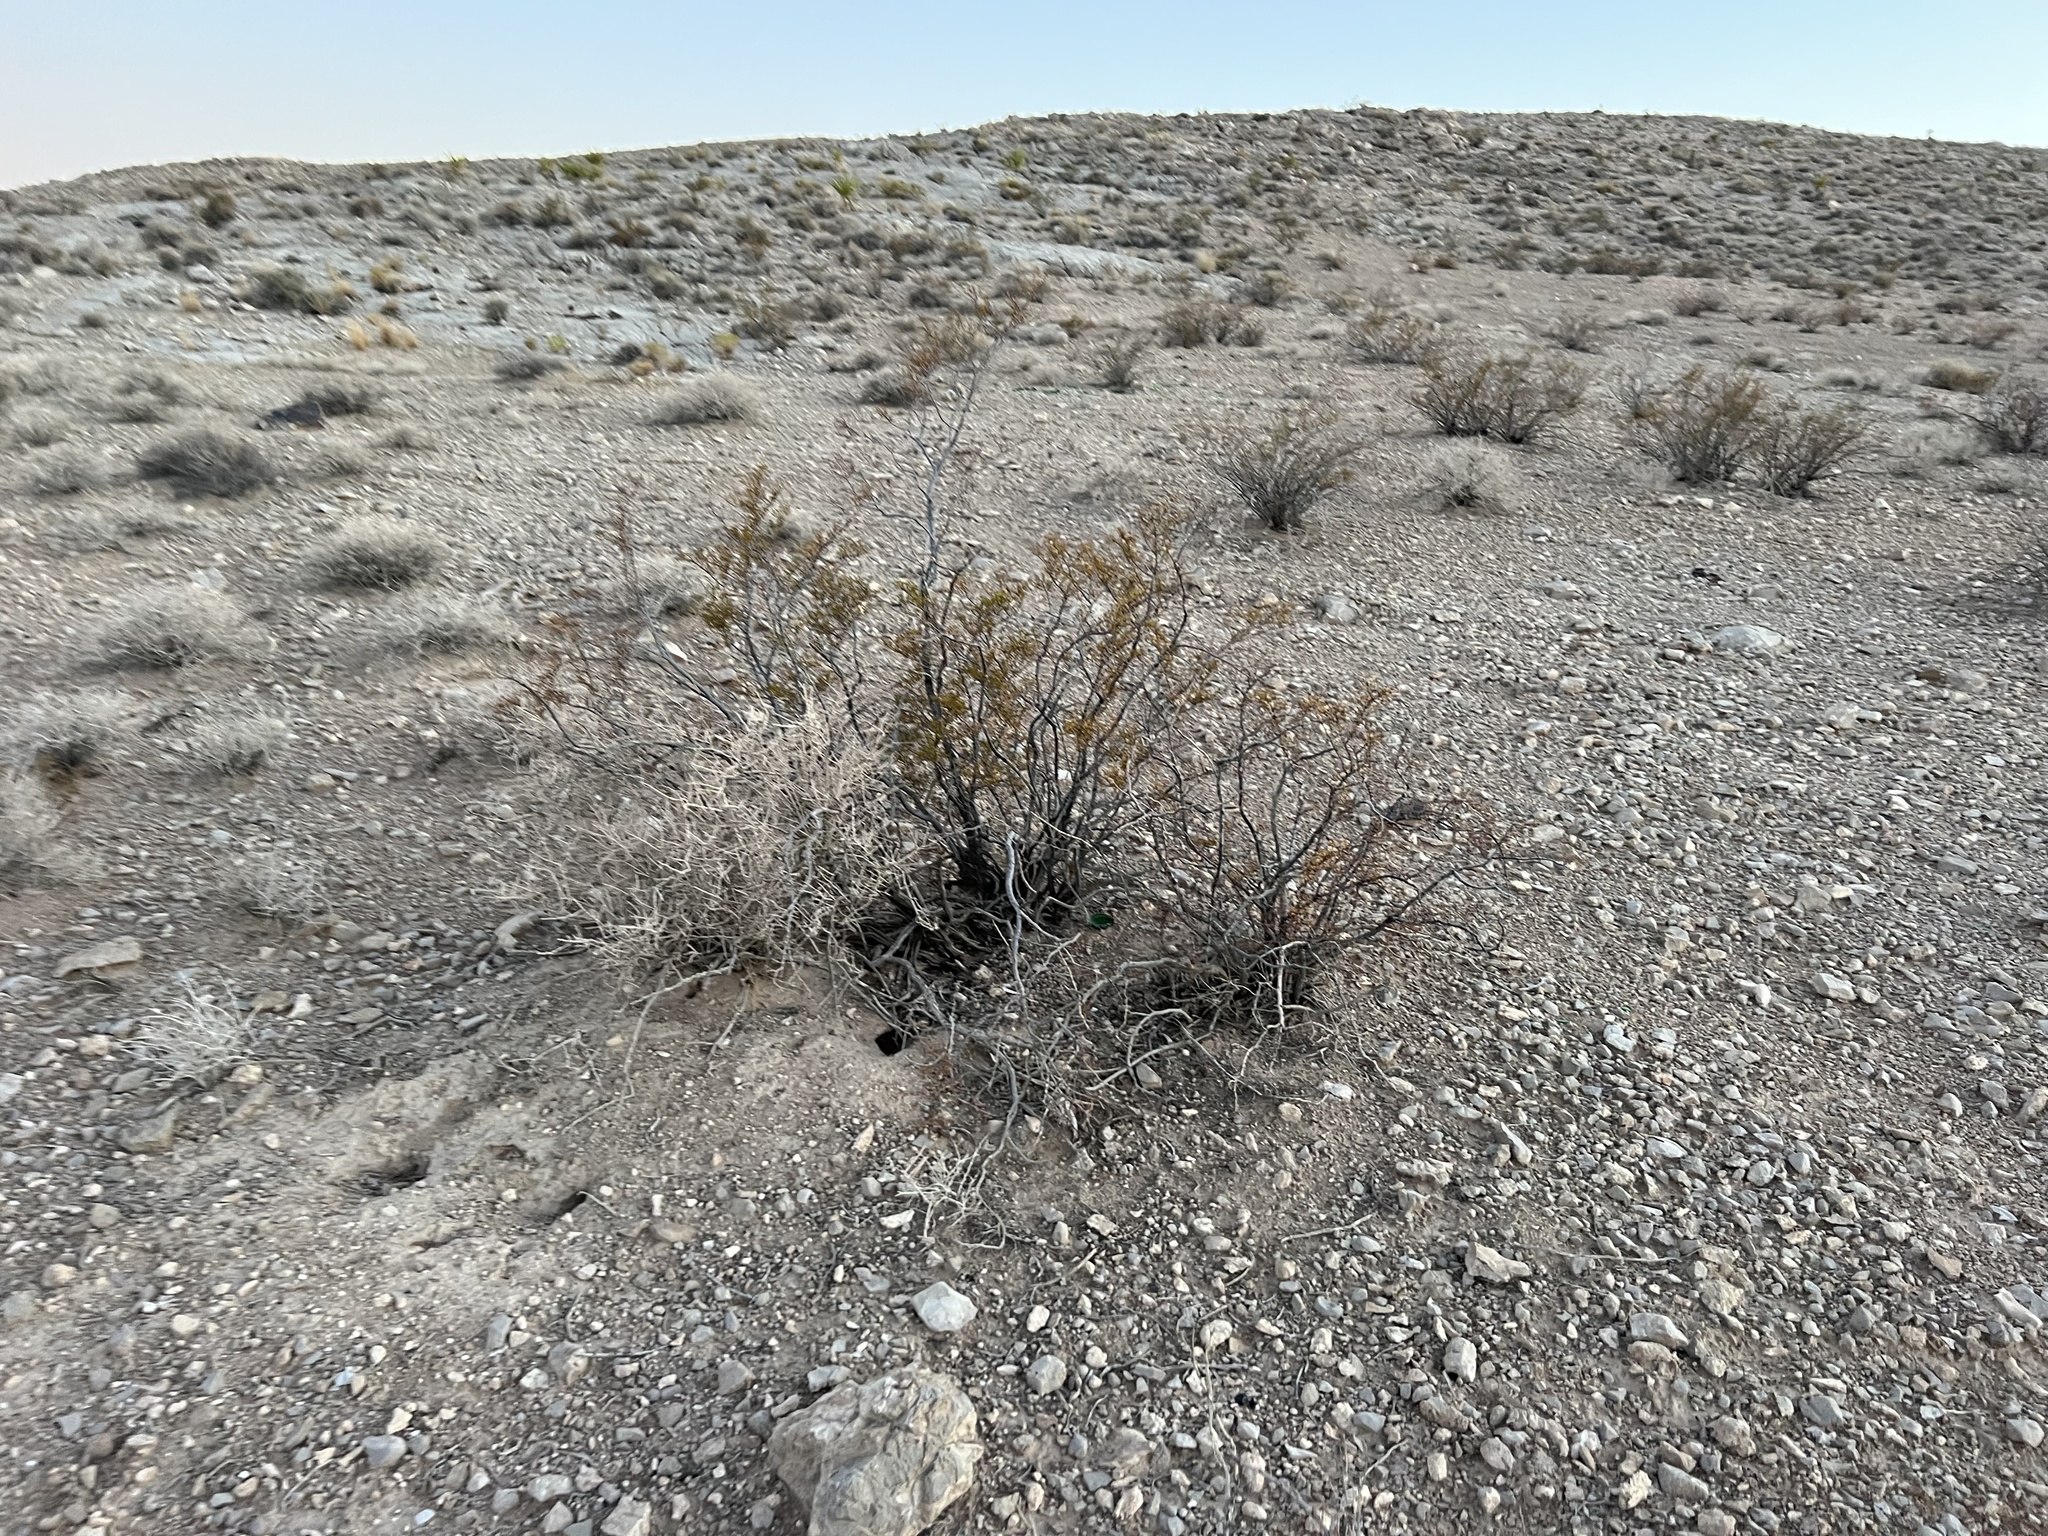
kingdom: Plantae
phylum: Tracheophyta
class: Magnoliopsida
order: Zygophyllales
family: Zygophyllaceae
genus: Larrea
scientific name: Larrea tridentata
